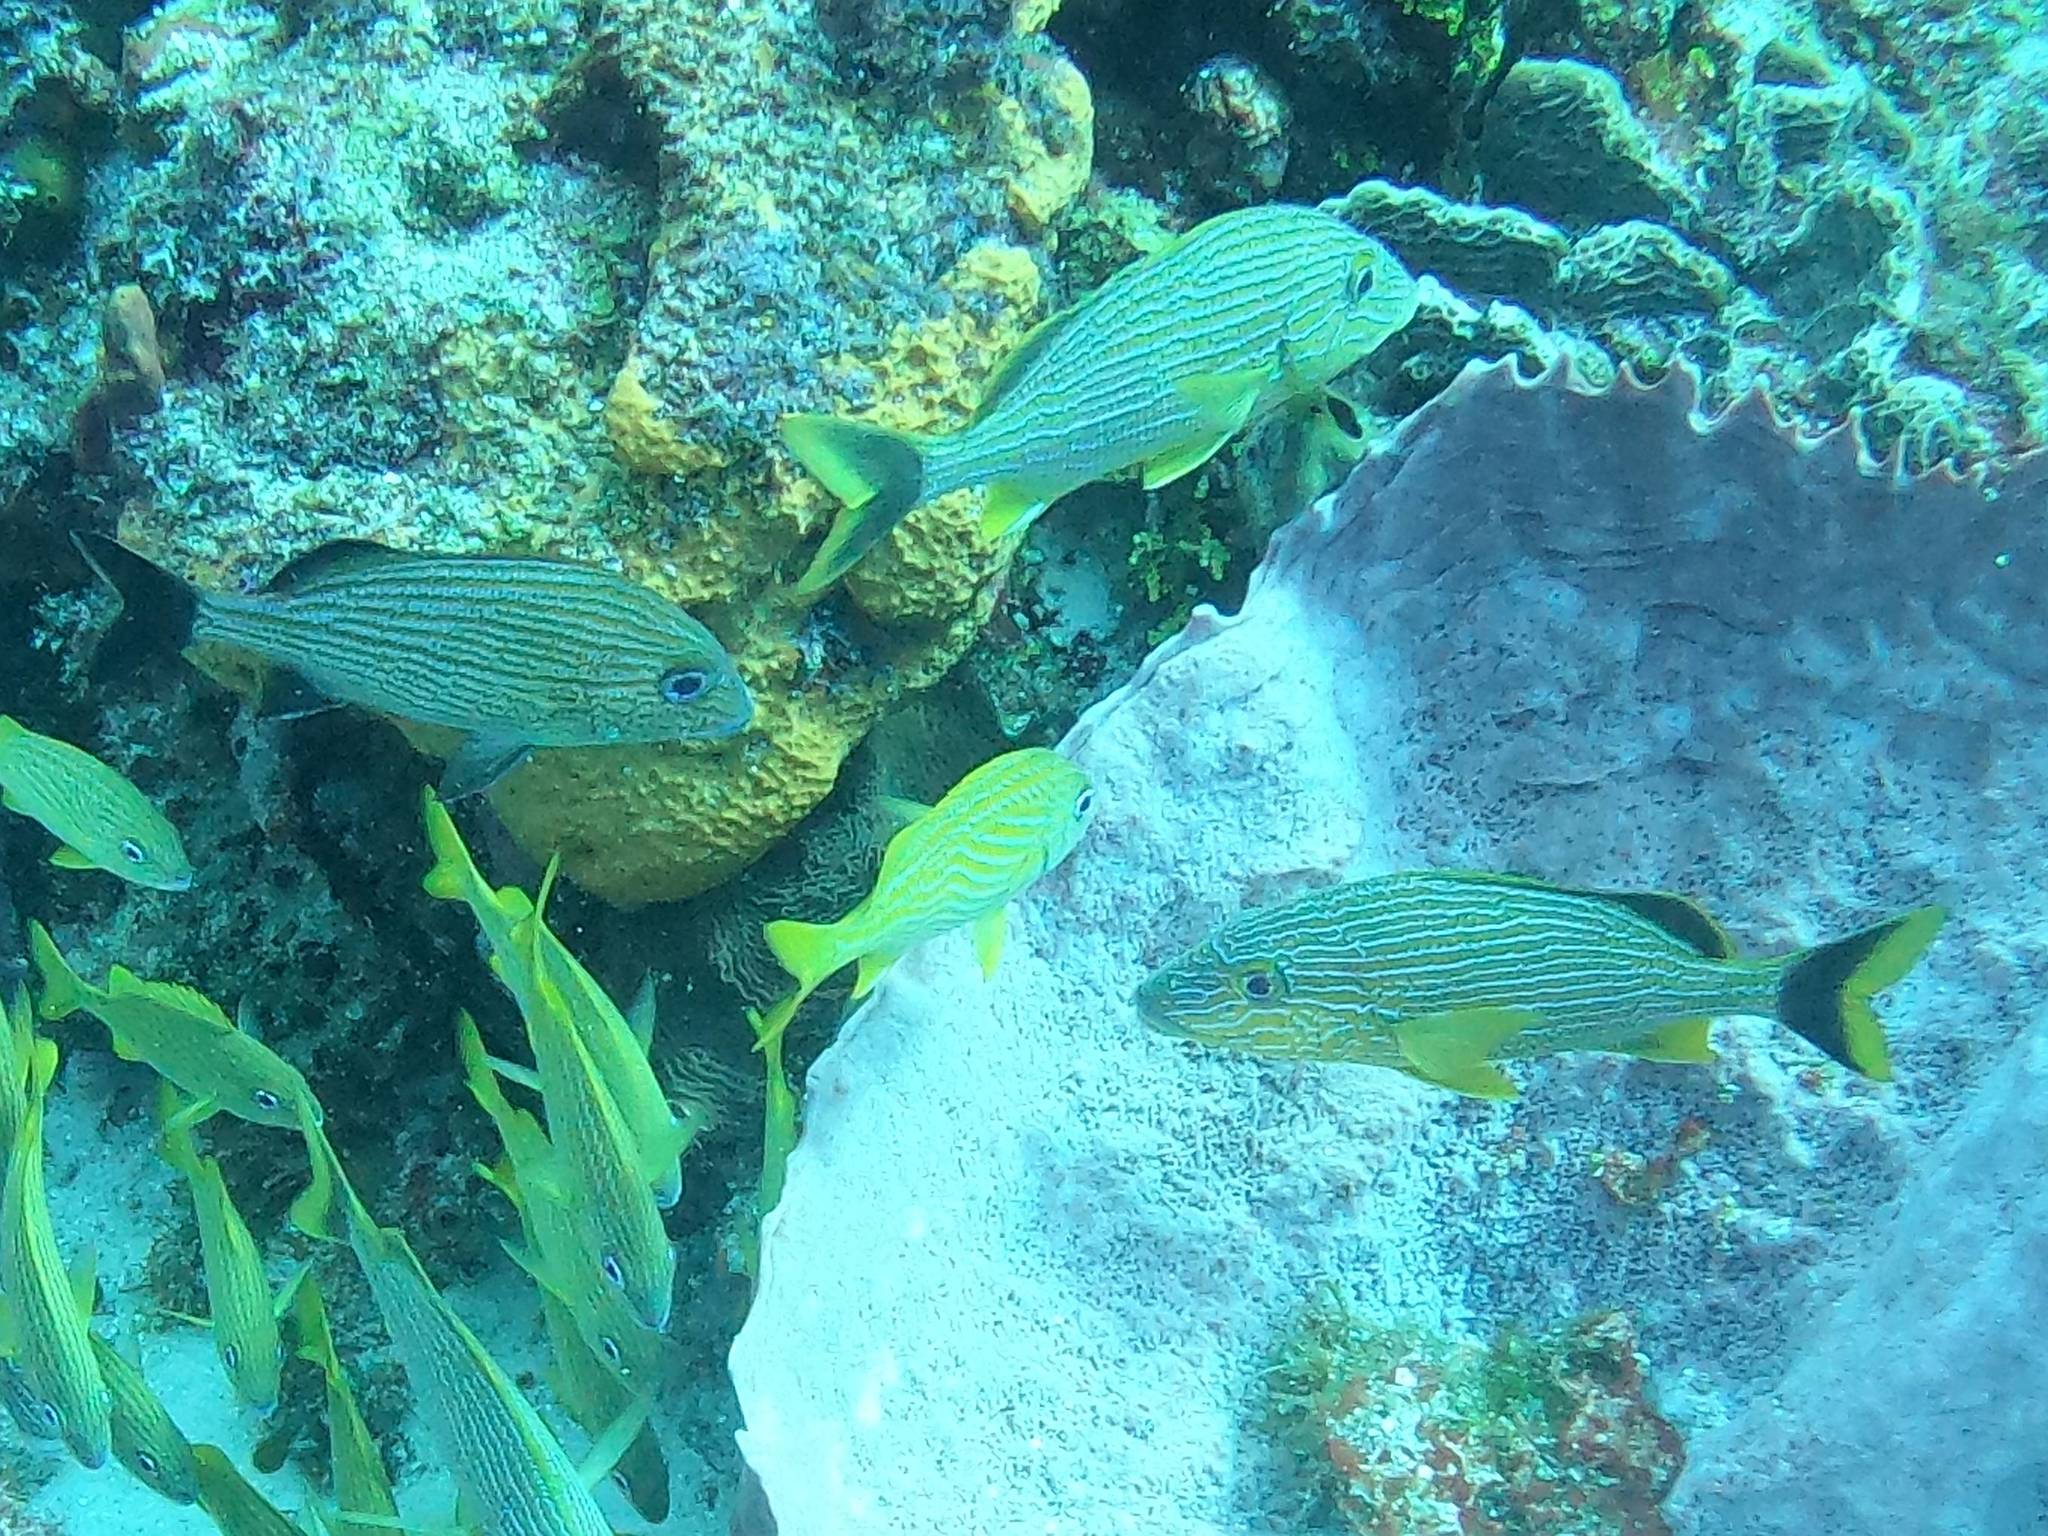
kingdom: Animalia
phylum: Chordata
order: Perciformes
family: Haemulidae
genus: Haemulon
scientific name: Haemulon sciurus
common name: Bluestriped grunt
